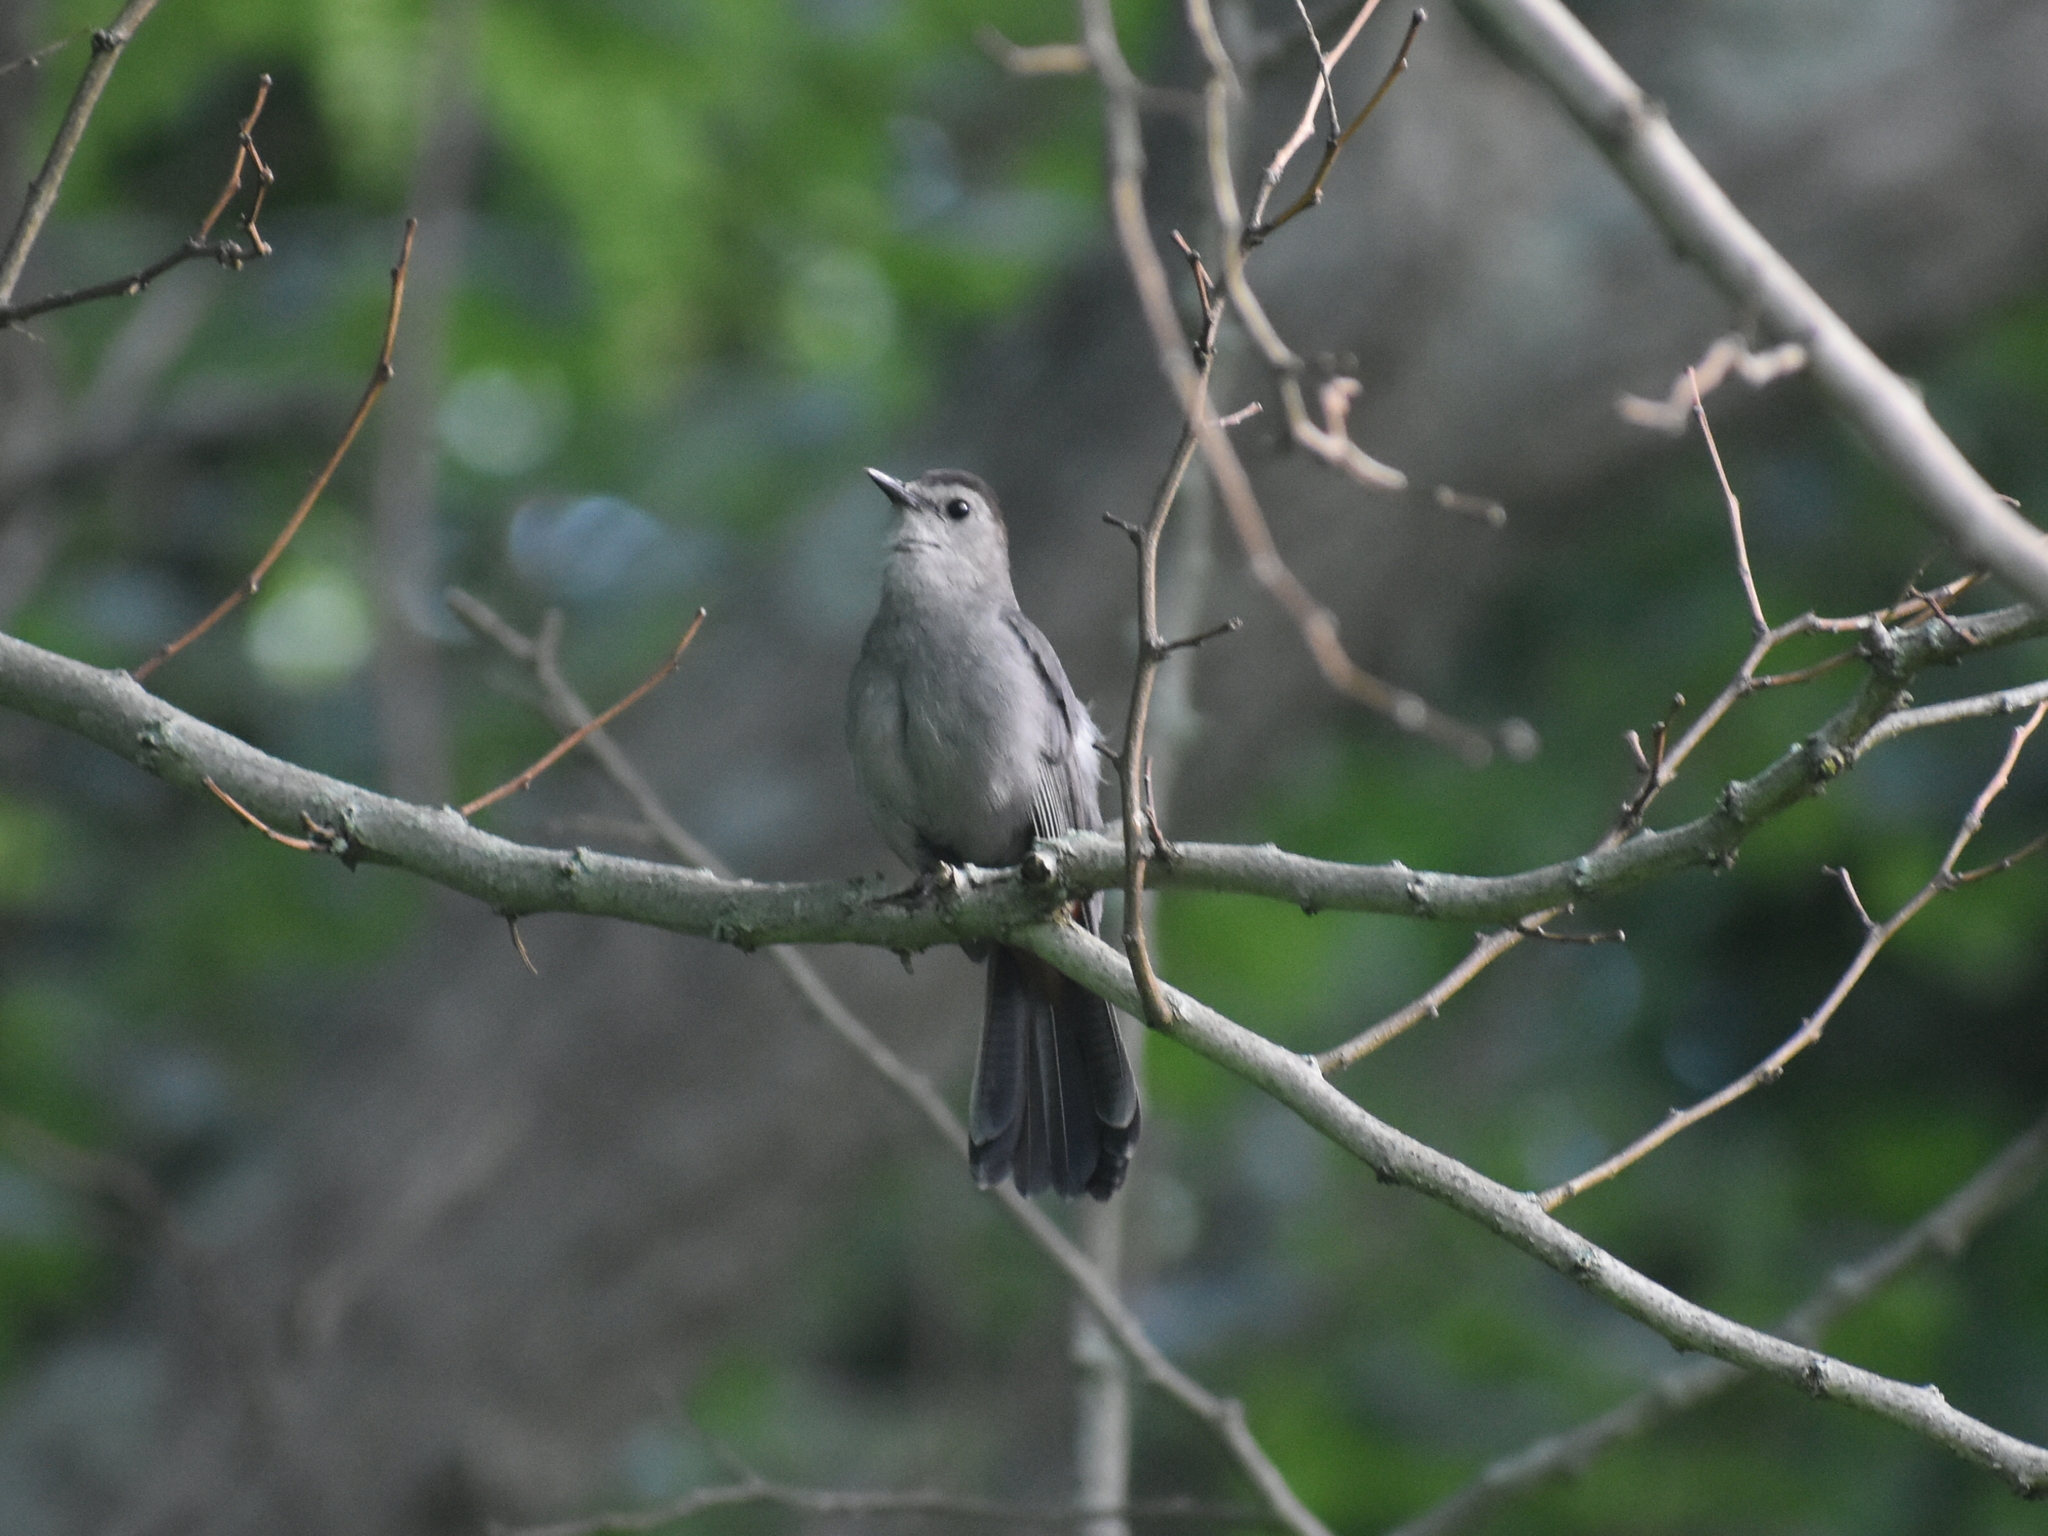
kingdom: Animalia
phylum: Chordata
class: Aves
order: Passeriformes
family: Mimidae
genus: Dumetella
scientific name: Dumetella carolinensis
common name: Gray catbird
